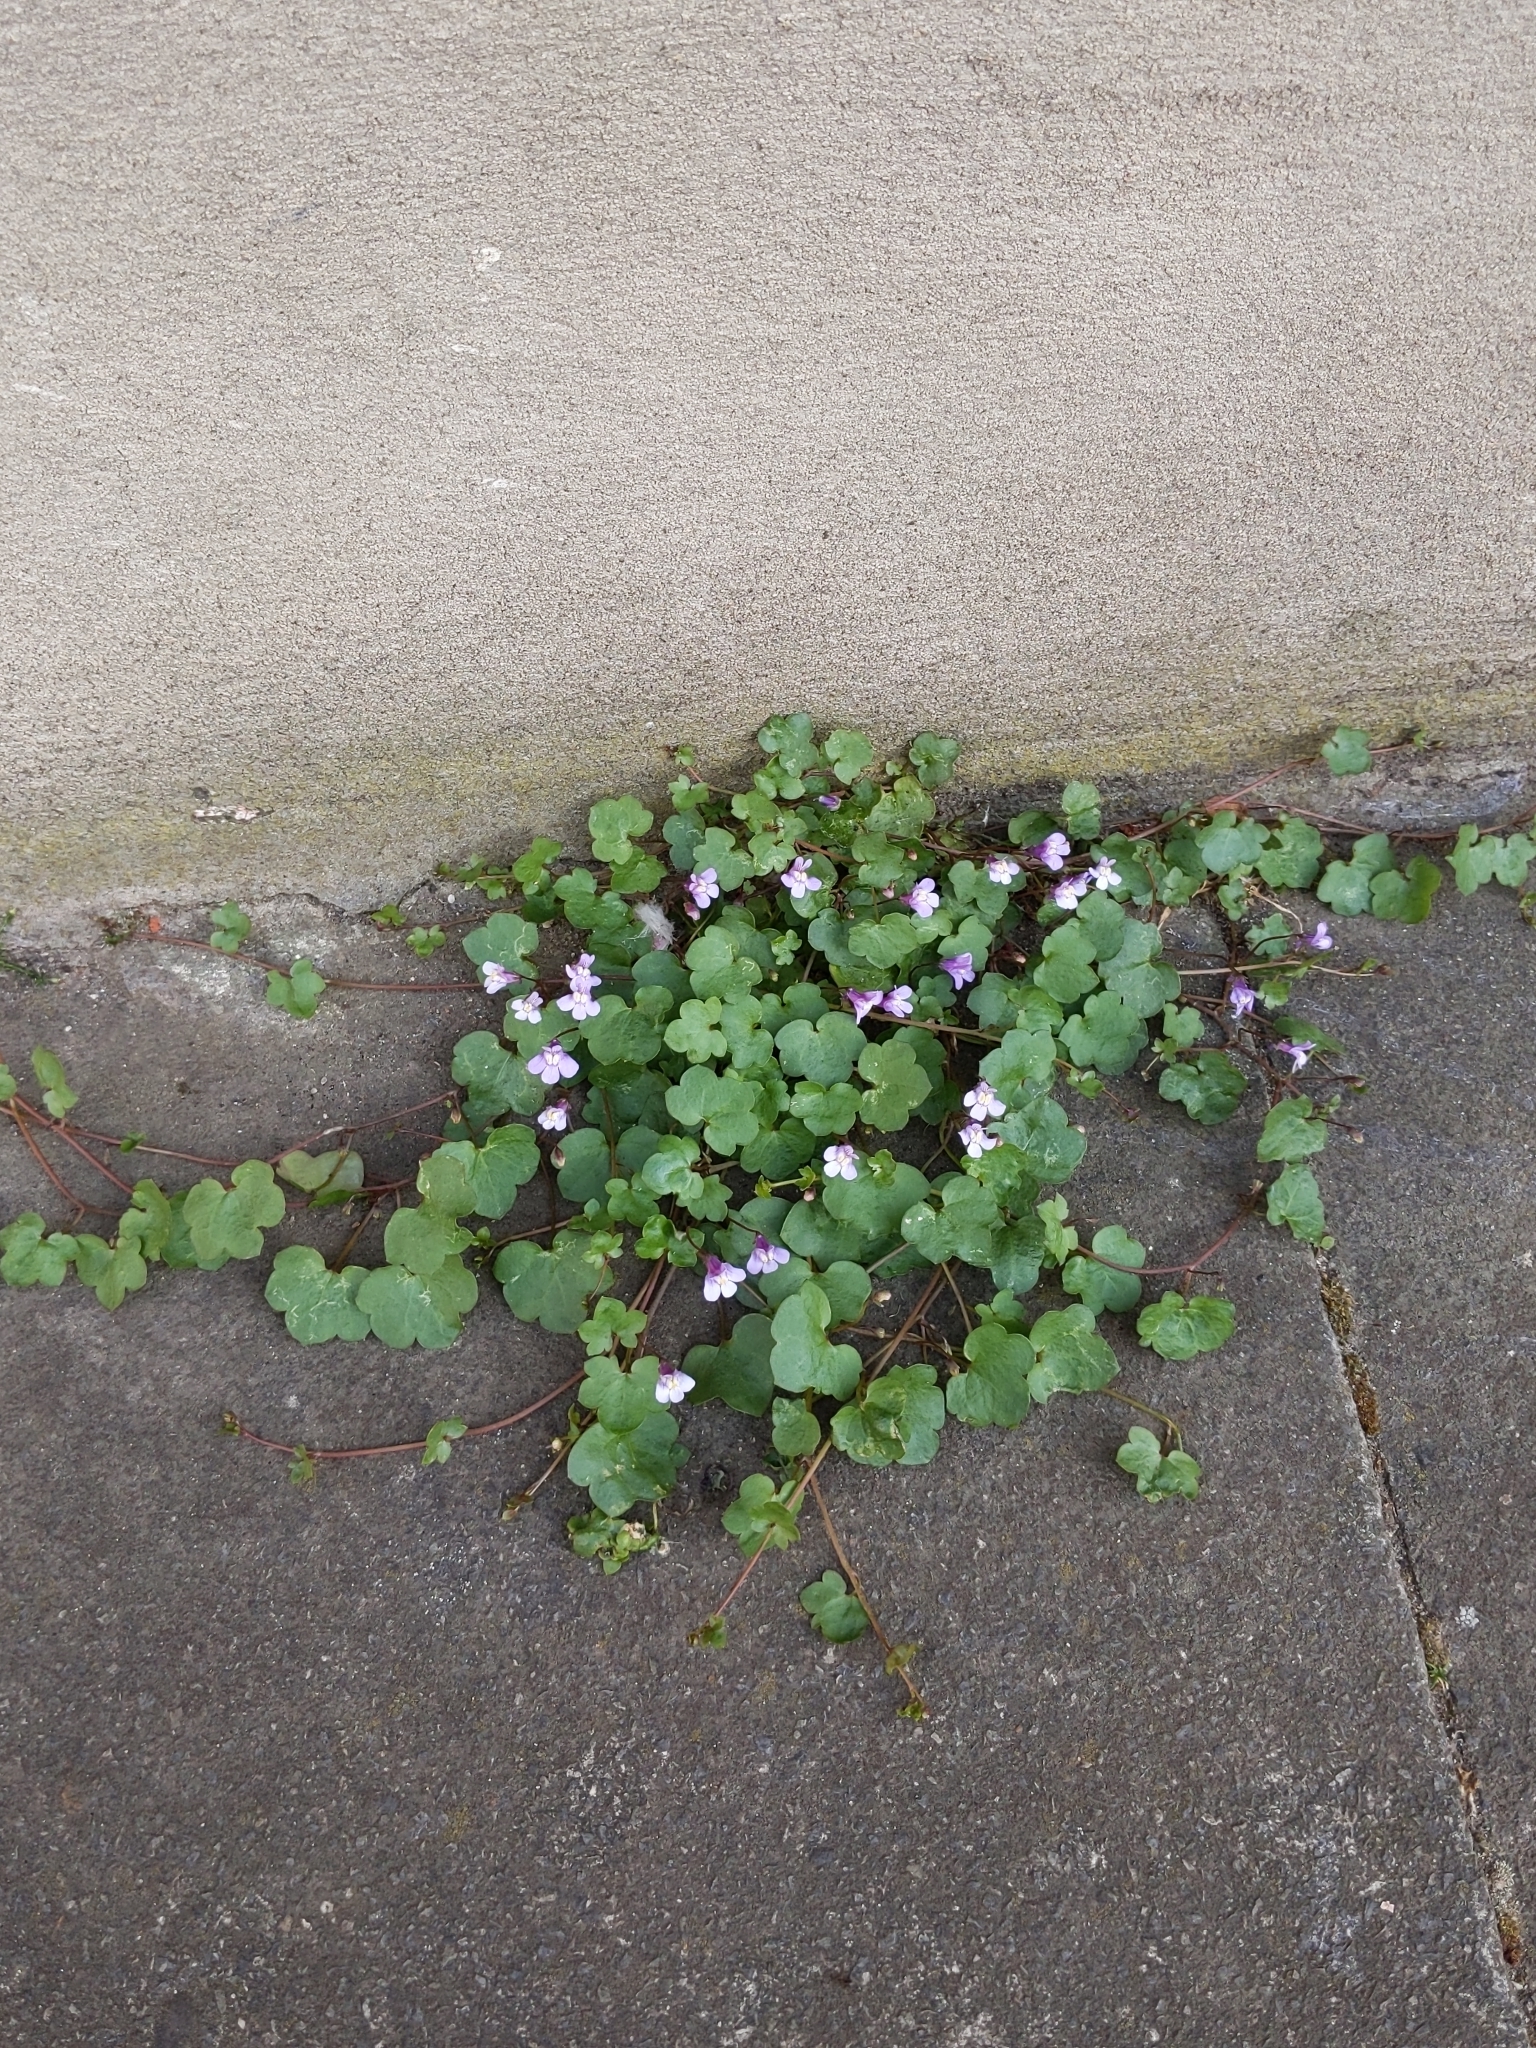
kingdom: Plantae
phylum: Tracheophyta
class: Magnoliopsida
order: Lamiales
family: Plantaginaceae
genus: Cymbalaria
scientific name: Cymbalaria muralis
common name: Ivy-leaved toadflax
